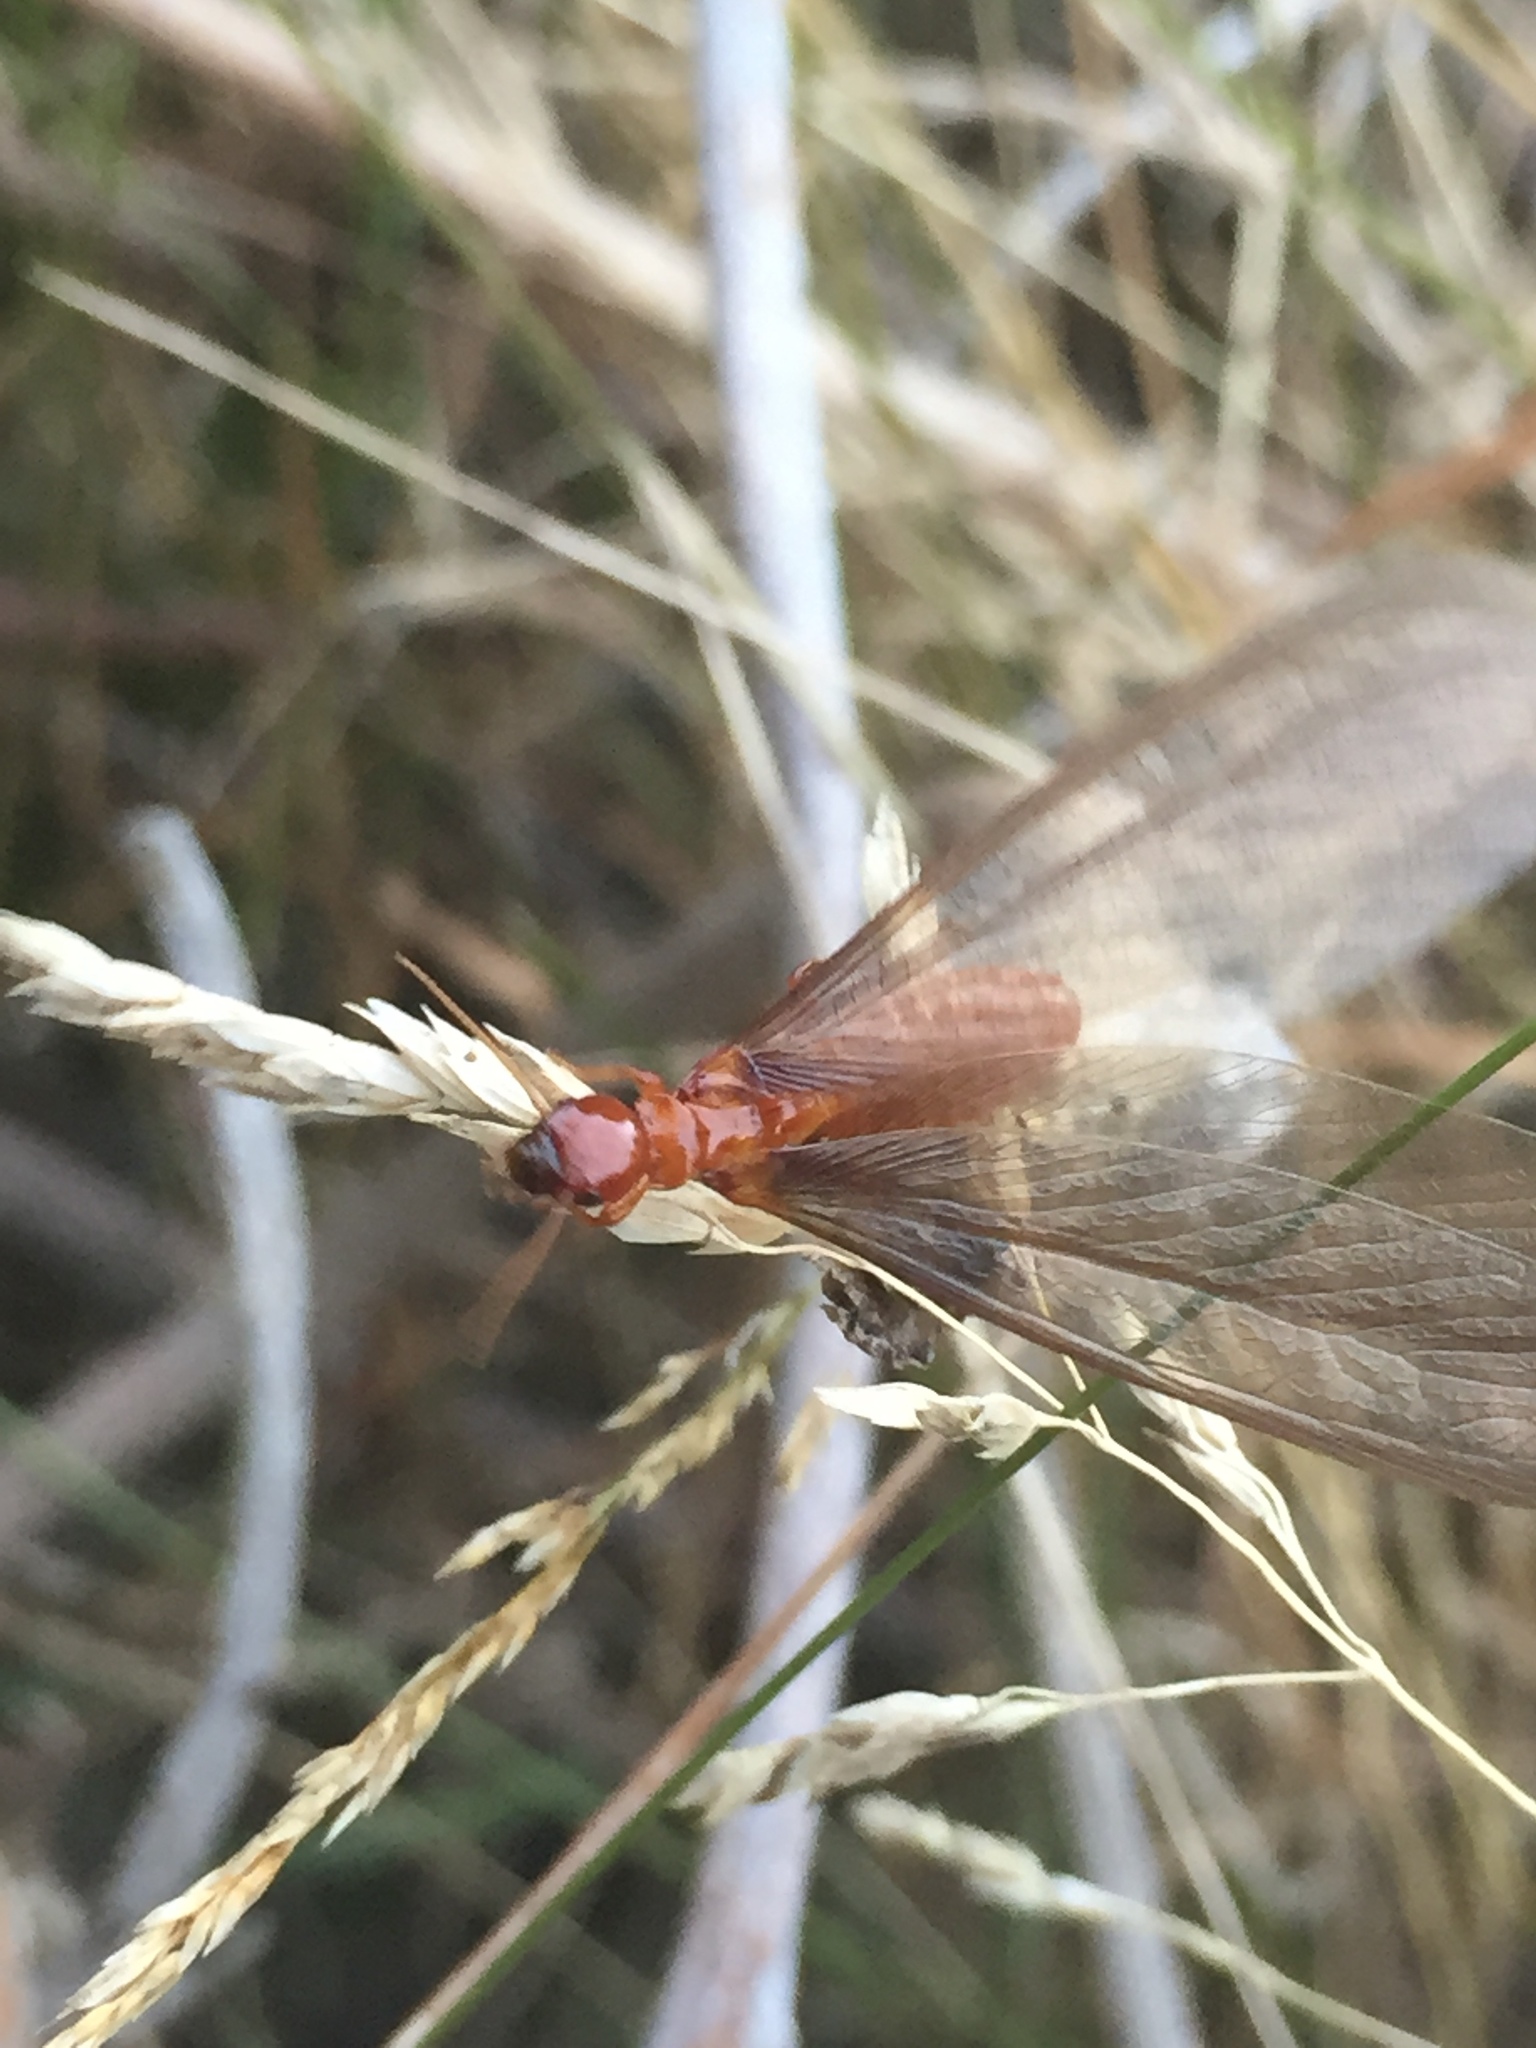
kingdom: Animalia
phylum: Arthropoda
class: Insecta
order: Blattodea
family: Archotermopsidae
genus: Zootermopsis
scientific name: Zootermopsis angusticollis
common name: Rottenwood termite
